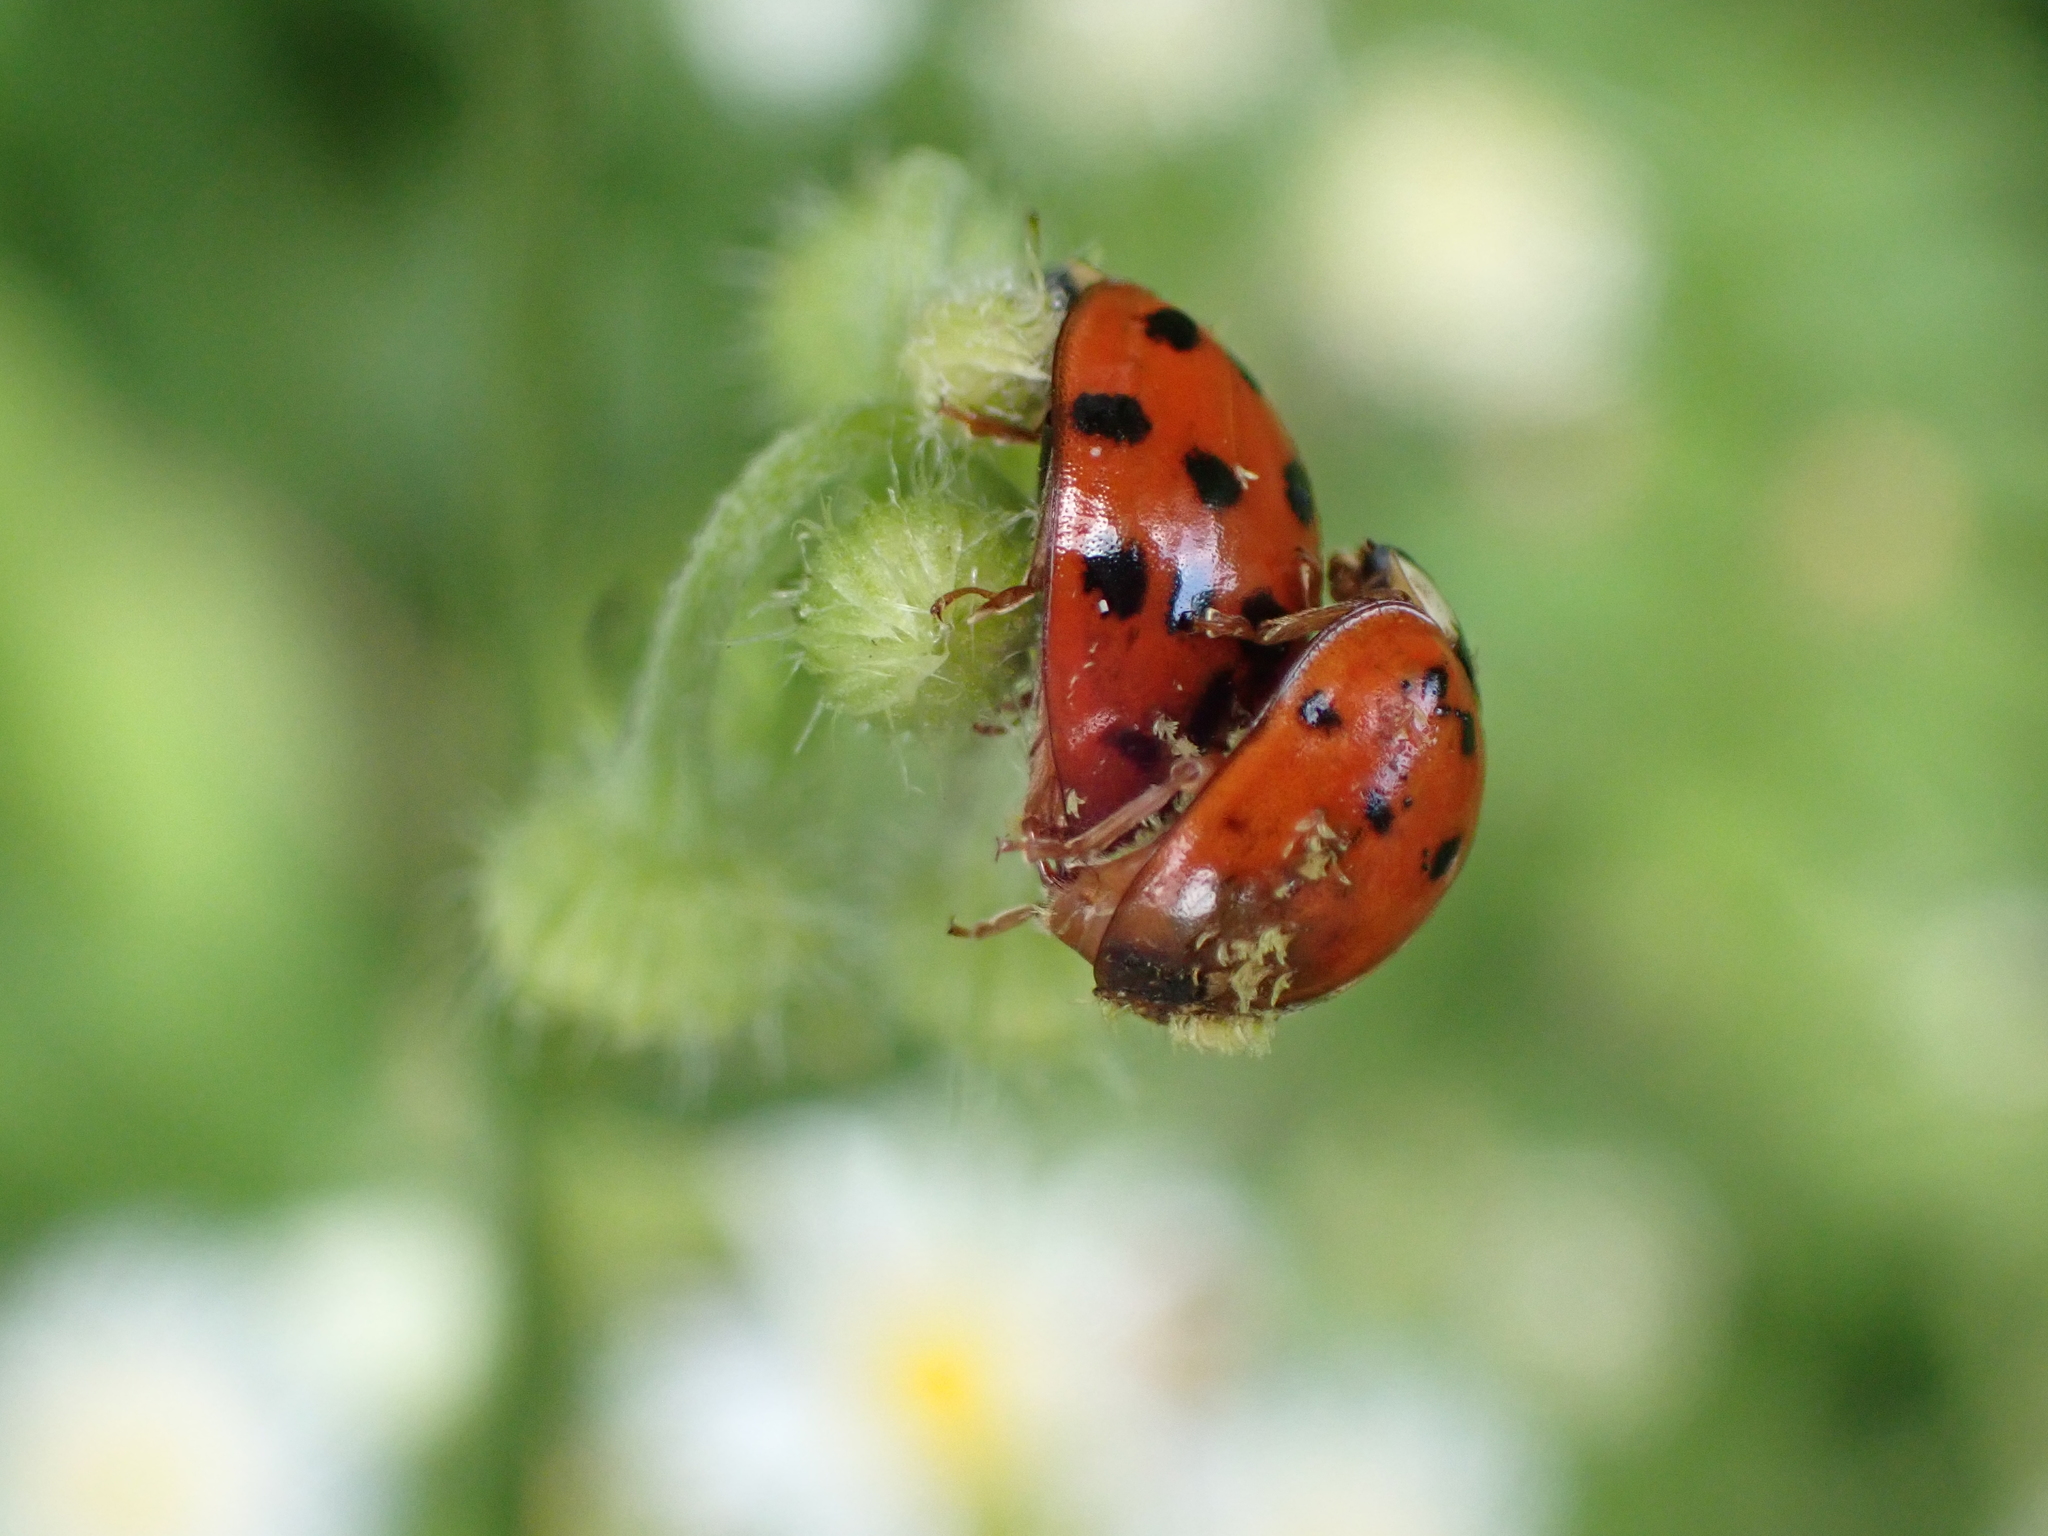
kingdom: Animalia
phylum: Arthropoda
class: Insecta
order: Coleoptera
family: Coccinellidae
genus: Harmonia
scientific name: Harmonia axyridis
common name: Harlequin ladybird
